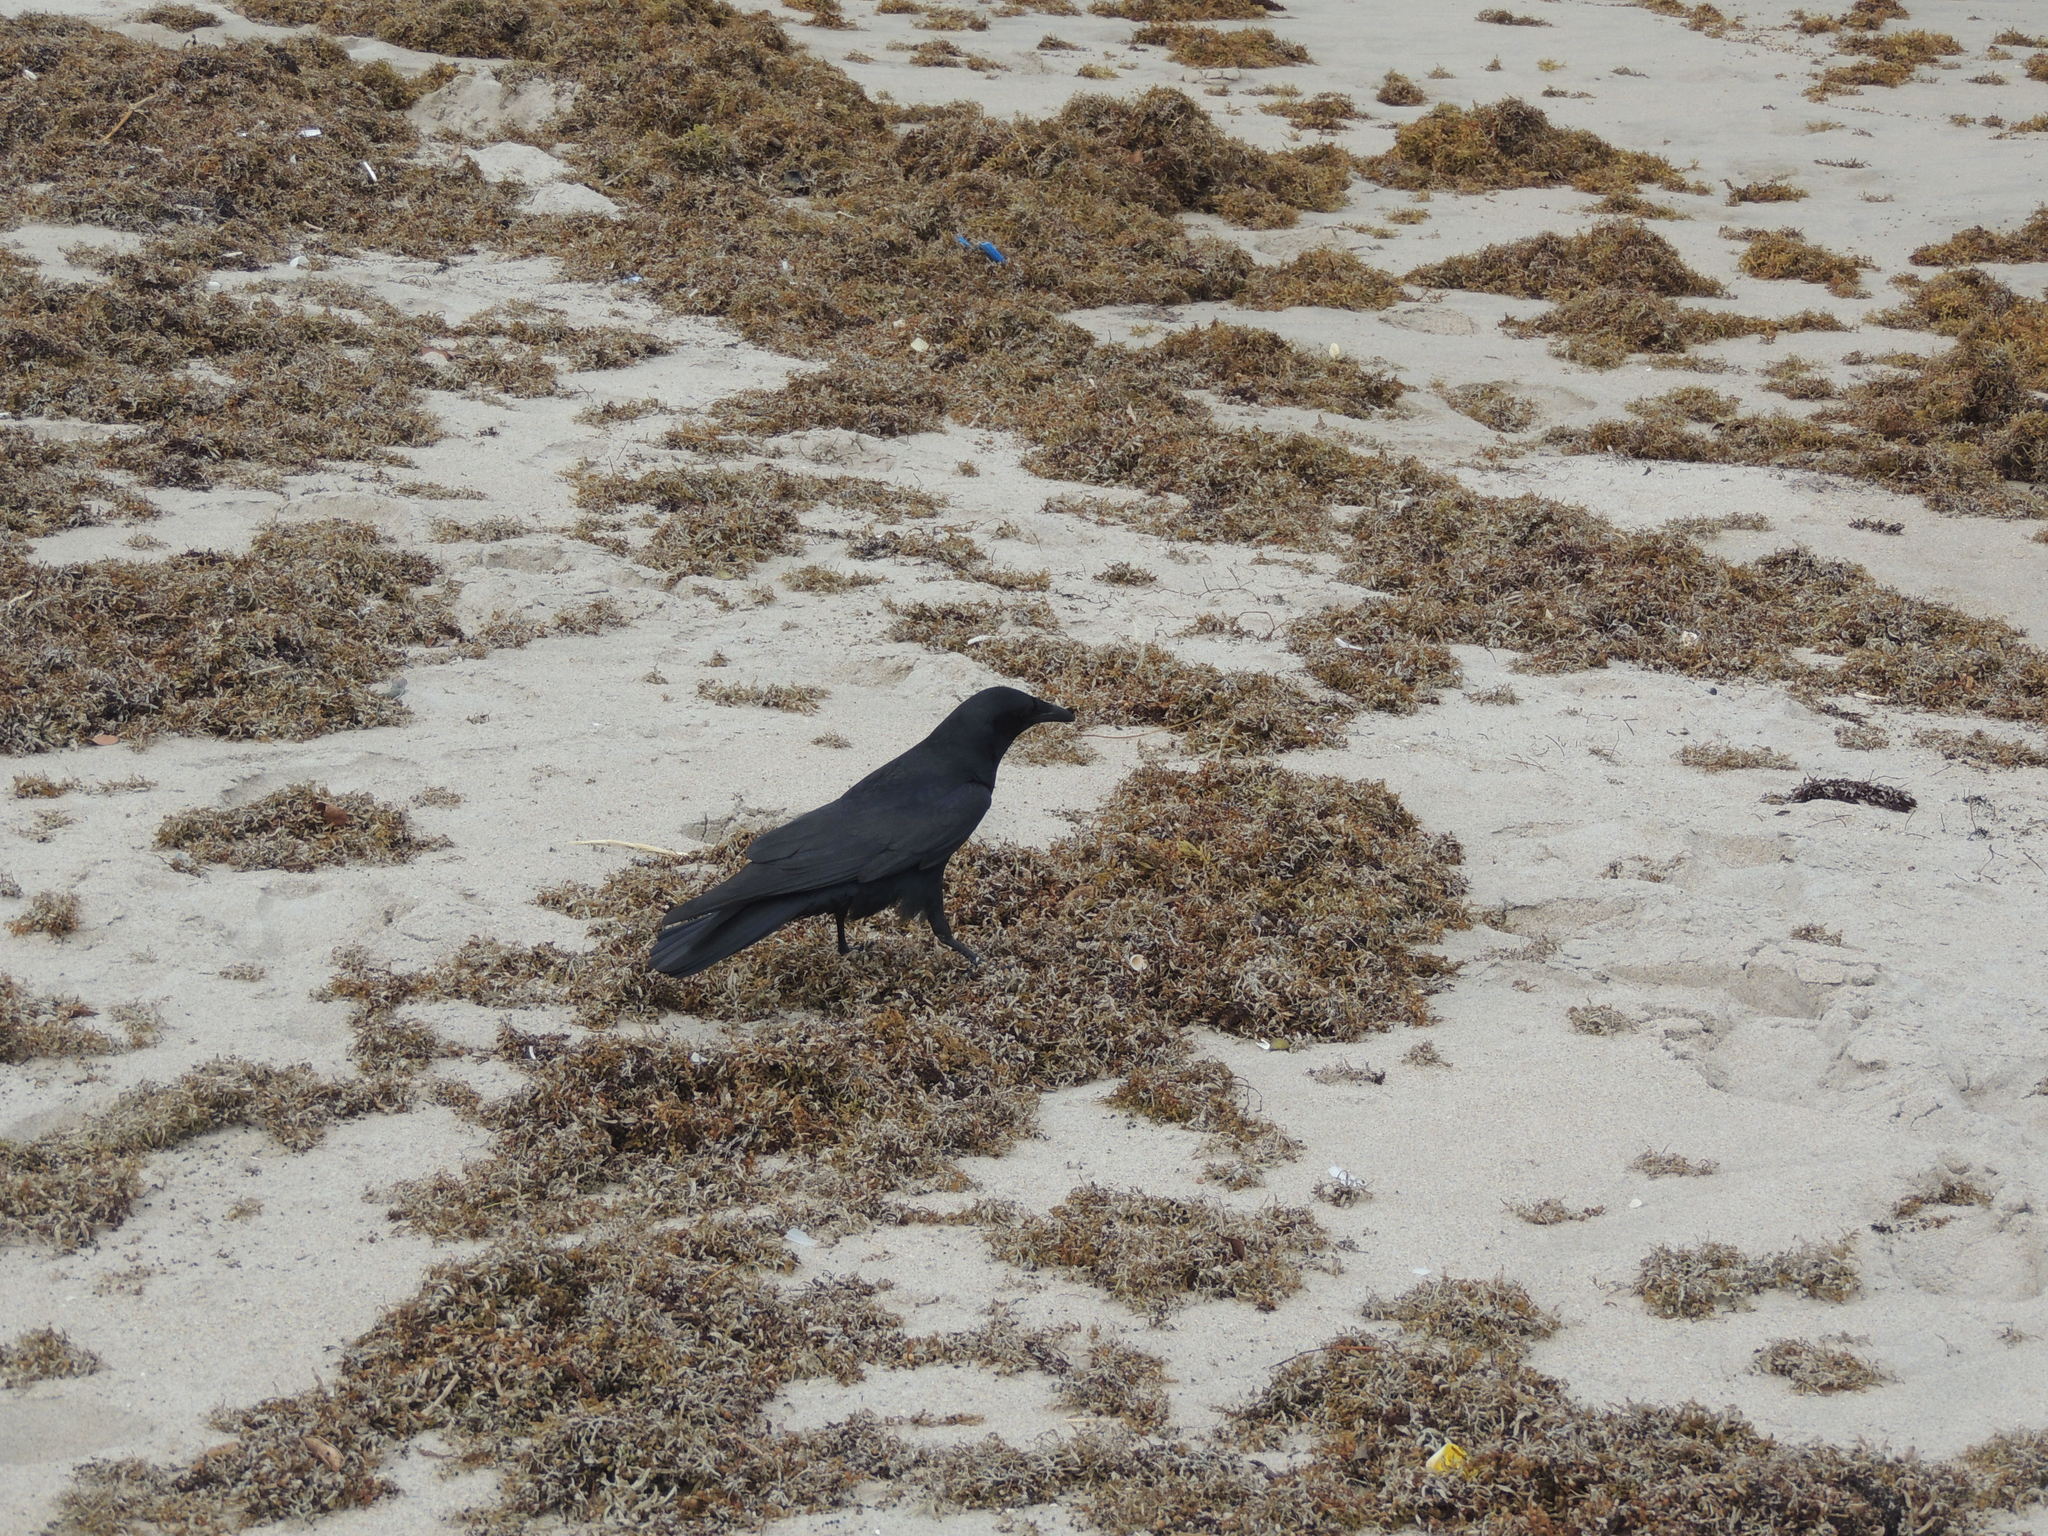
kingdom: Animalia
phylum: Chordata
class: Aves
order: Passeriformes
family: Corvidae
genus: Corvus
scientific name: Corvus ossifragus
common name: Fish crow
